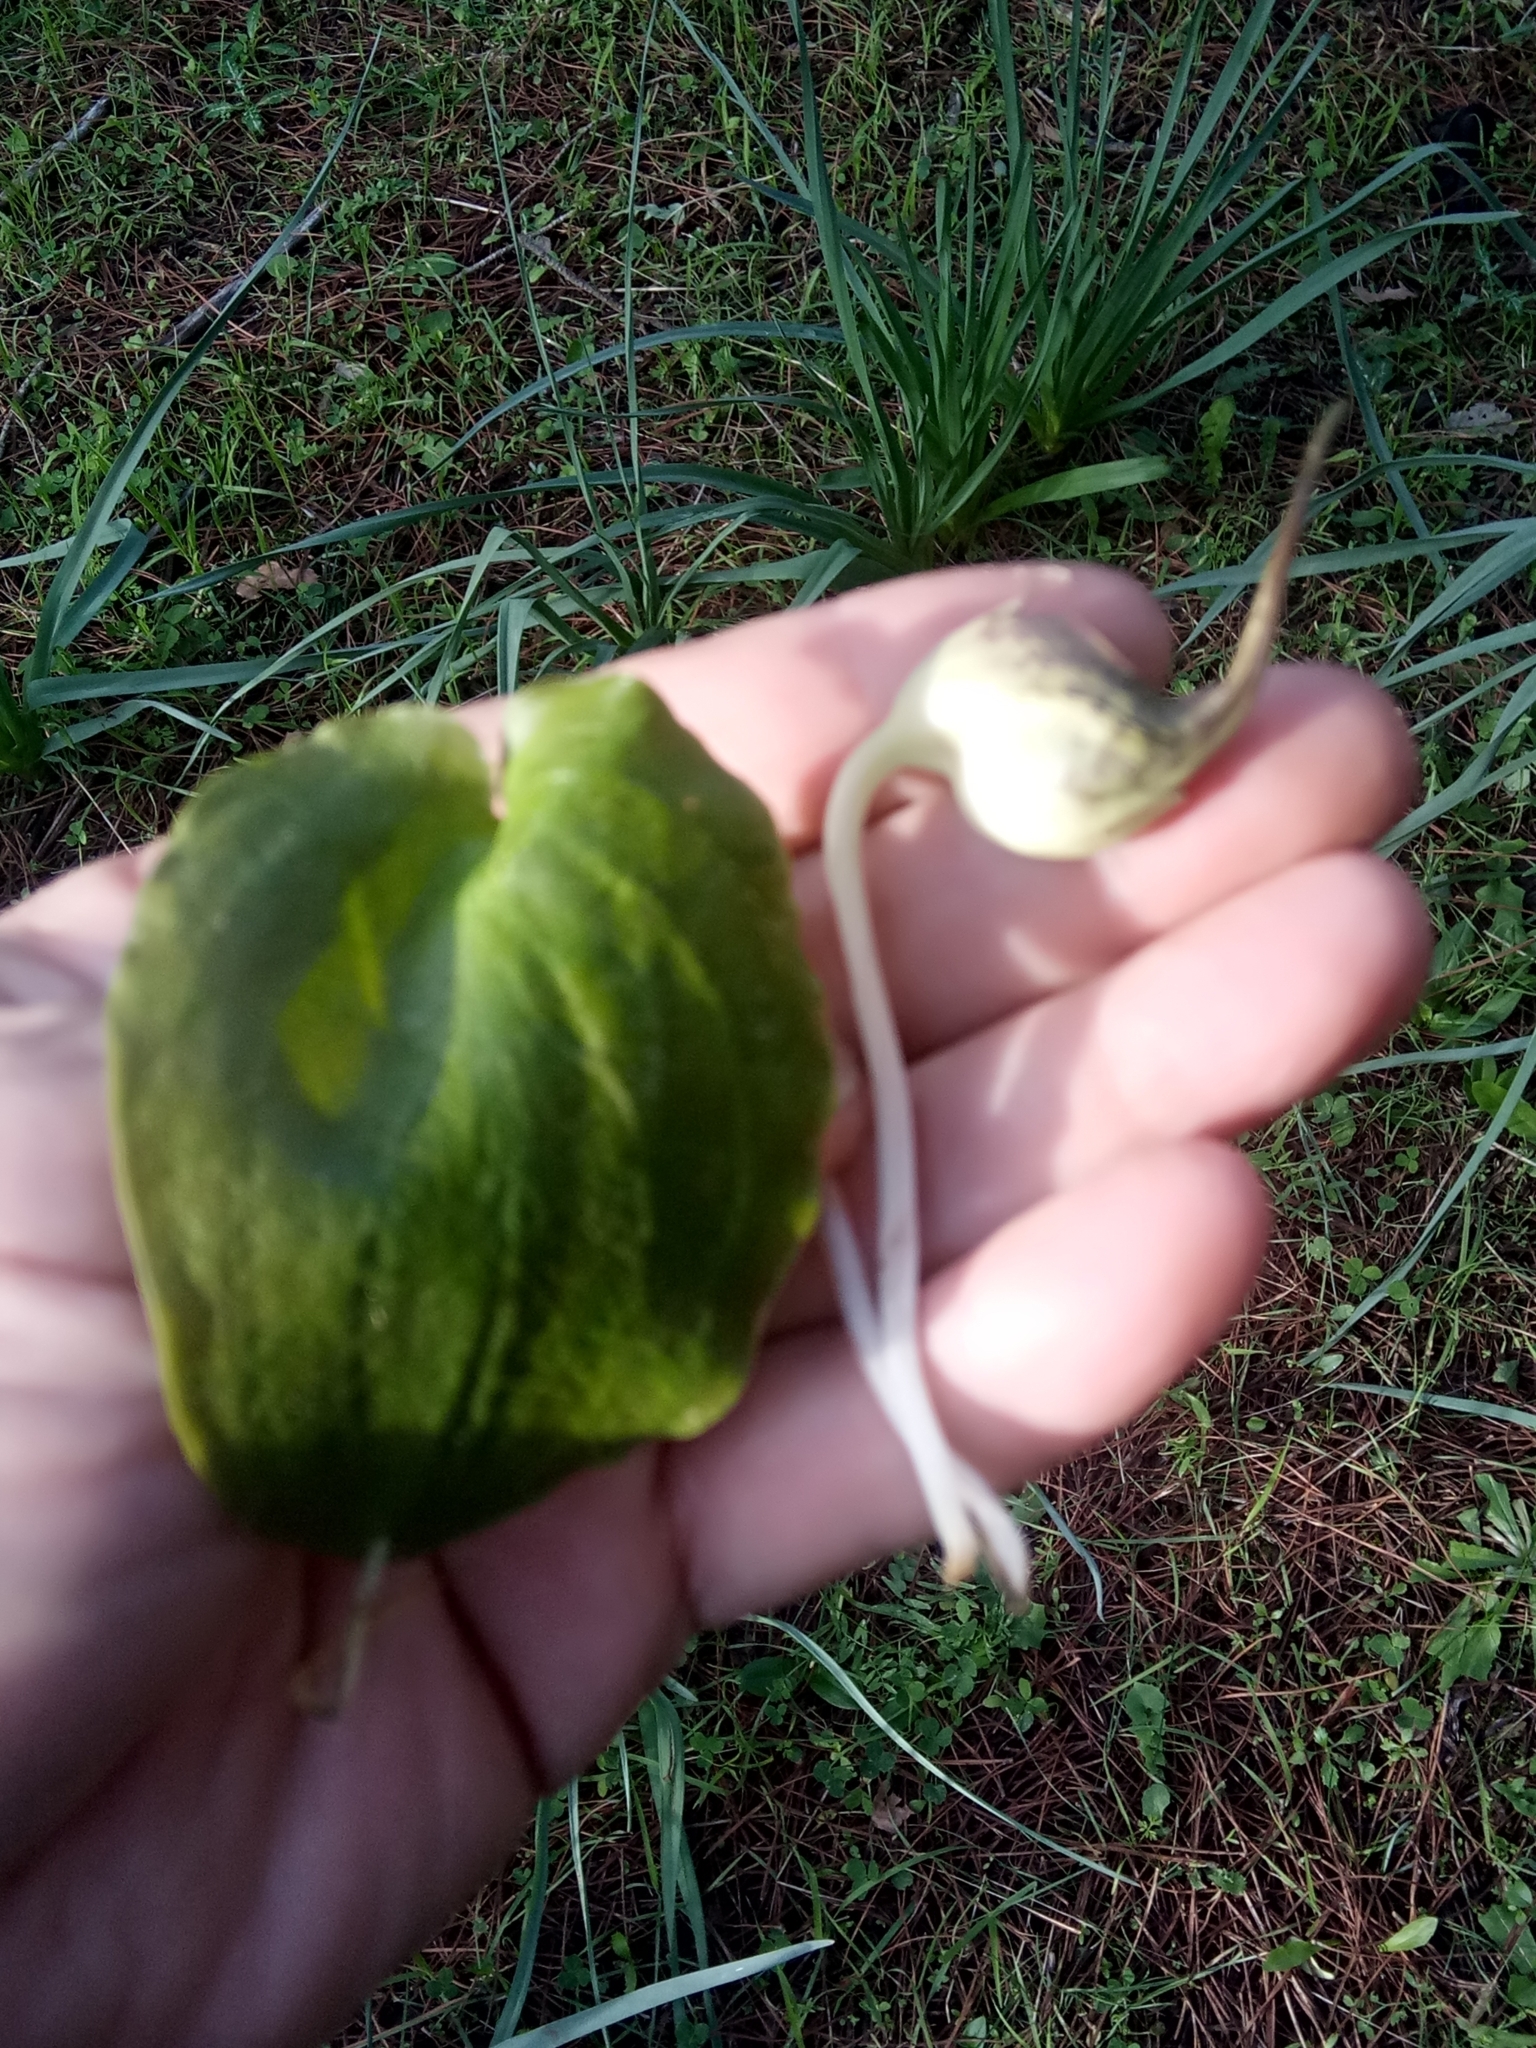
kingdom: Plantae
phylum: Tracheophyta
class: Liliopsida
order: Alismatales
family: Araceae
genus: Ambrosina
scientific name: Ambrosina bassii
